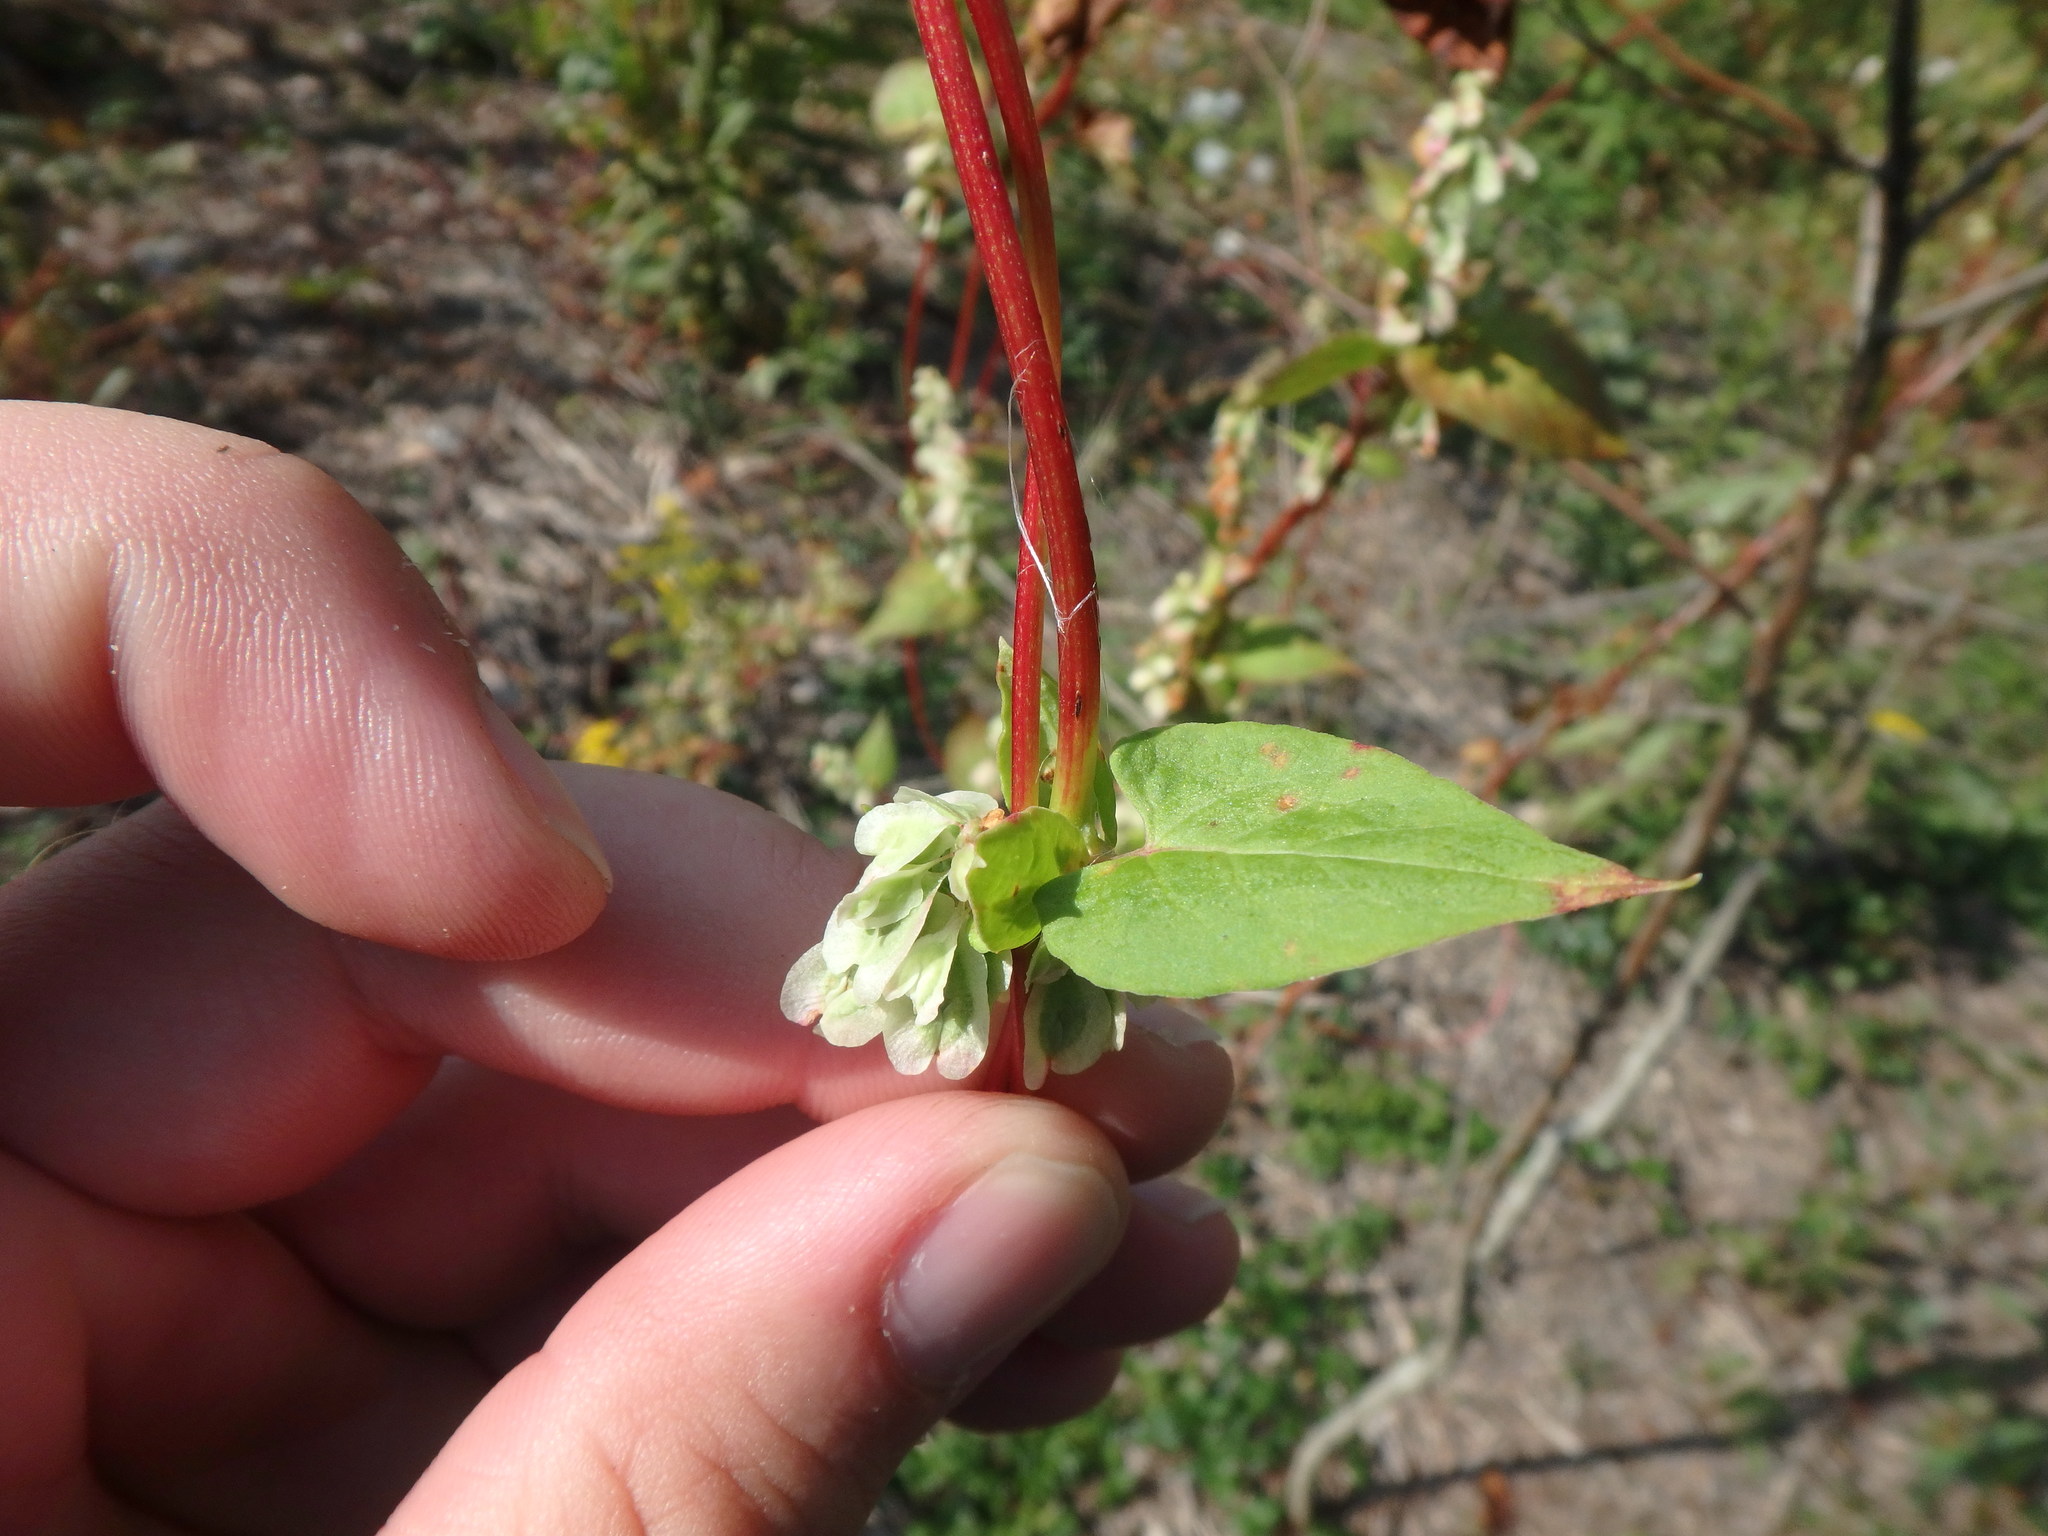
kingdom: Plantae
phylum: Tracheophyta
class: Magnoliopsida
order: Caryophyllales
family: Polygonaceae
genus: Fallopia
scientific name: Fallopia scandens
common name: Climbing false buckwheat
